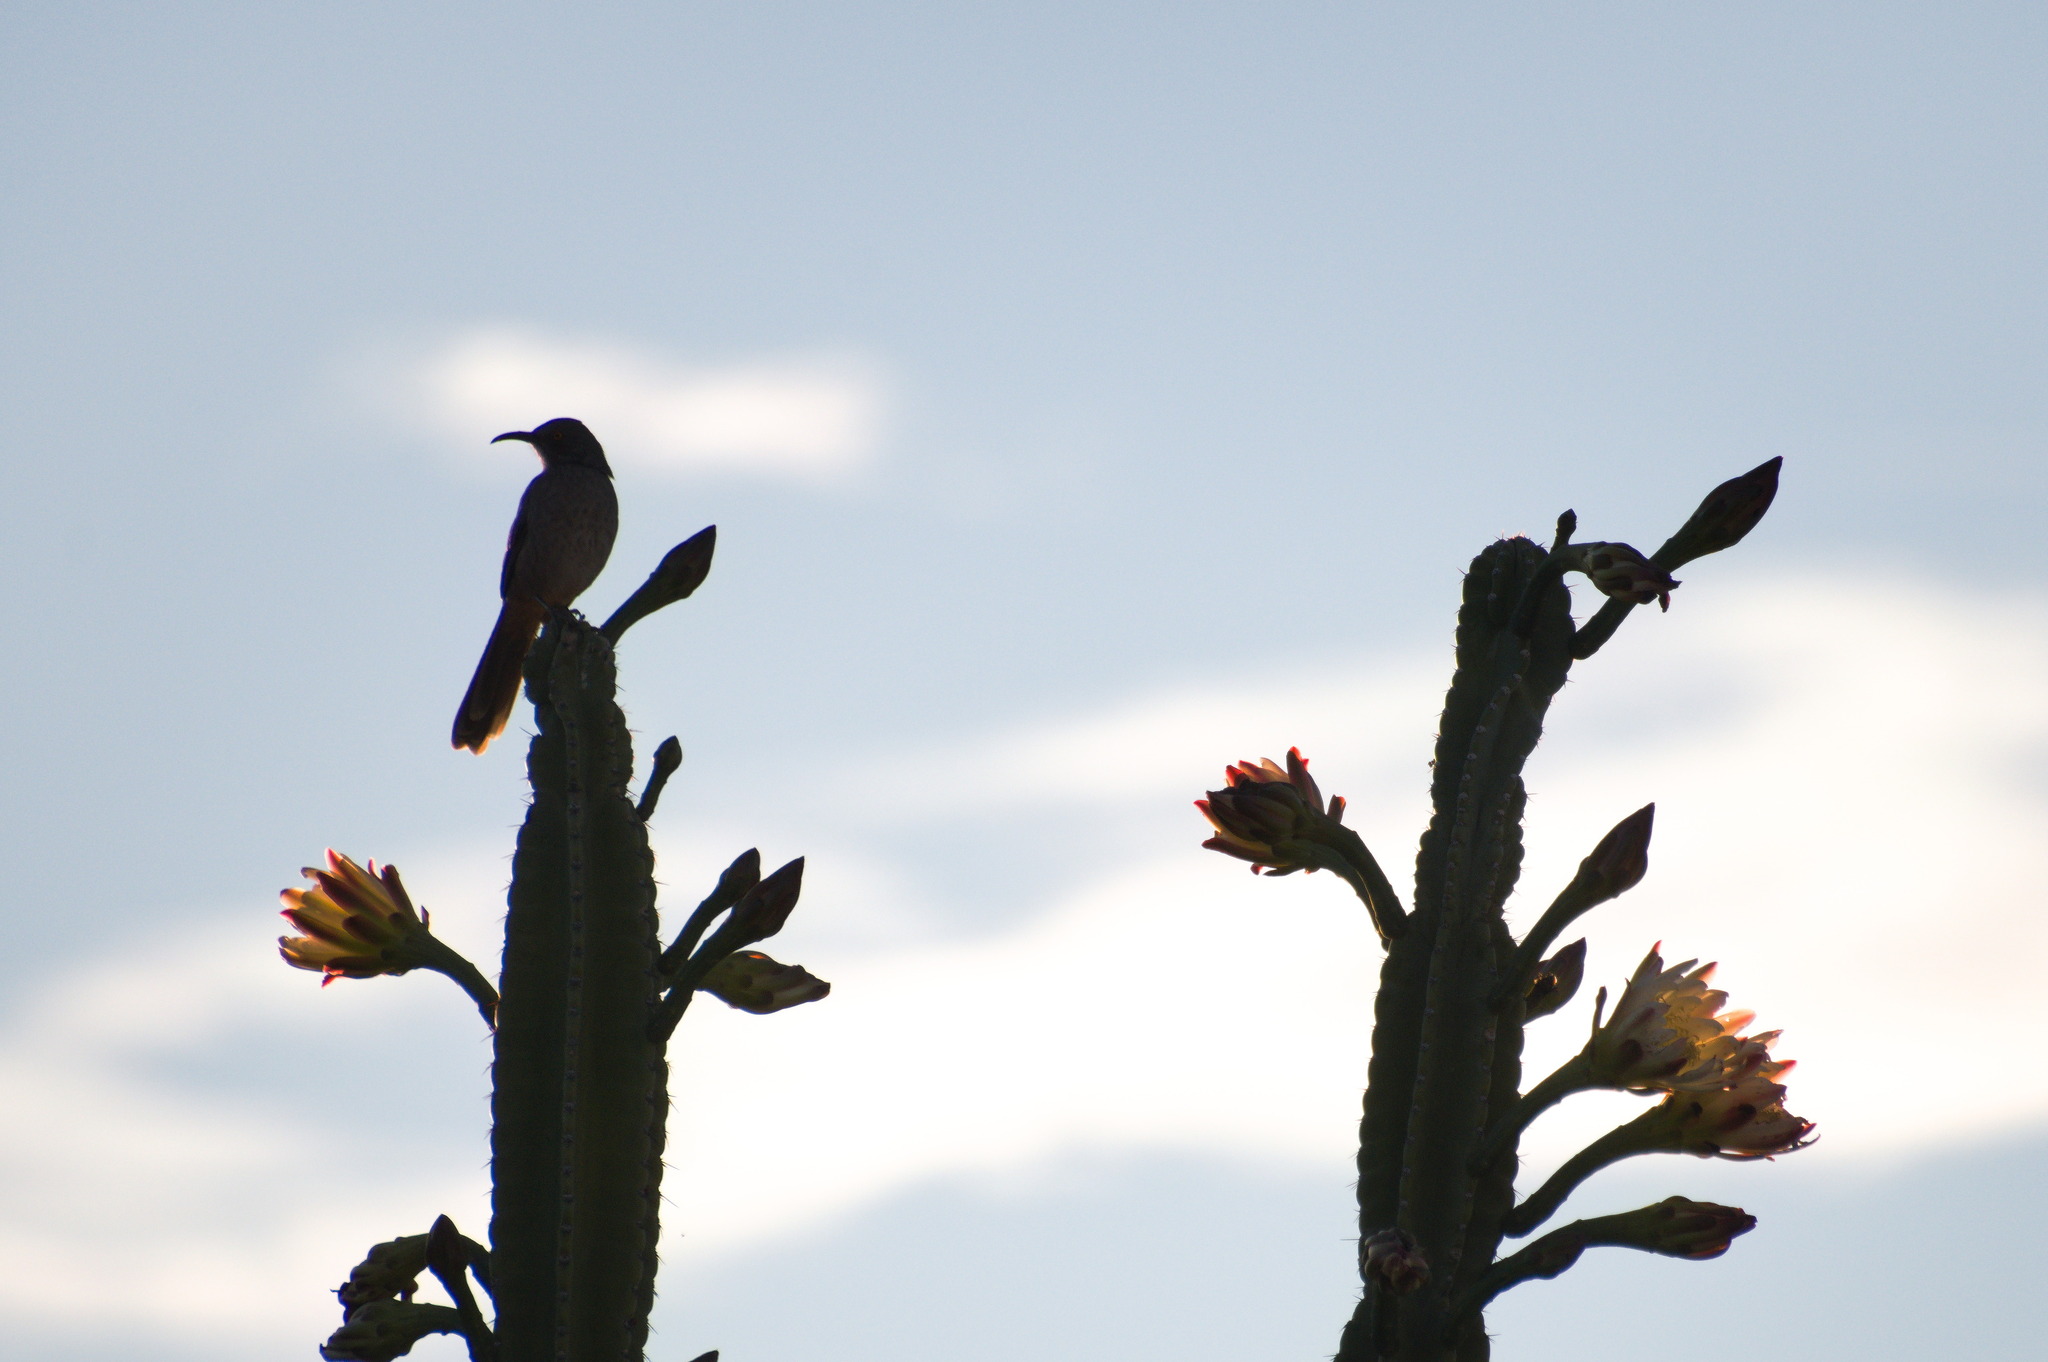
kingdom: Animalia
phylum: Chordata
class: Aves
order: Passeriformes
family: Mimidae
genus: Toxostoma
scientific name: Toxostoma curvirostre
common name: Curve-billed thrasher
